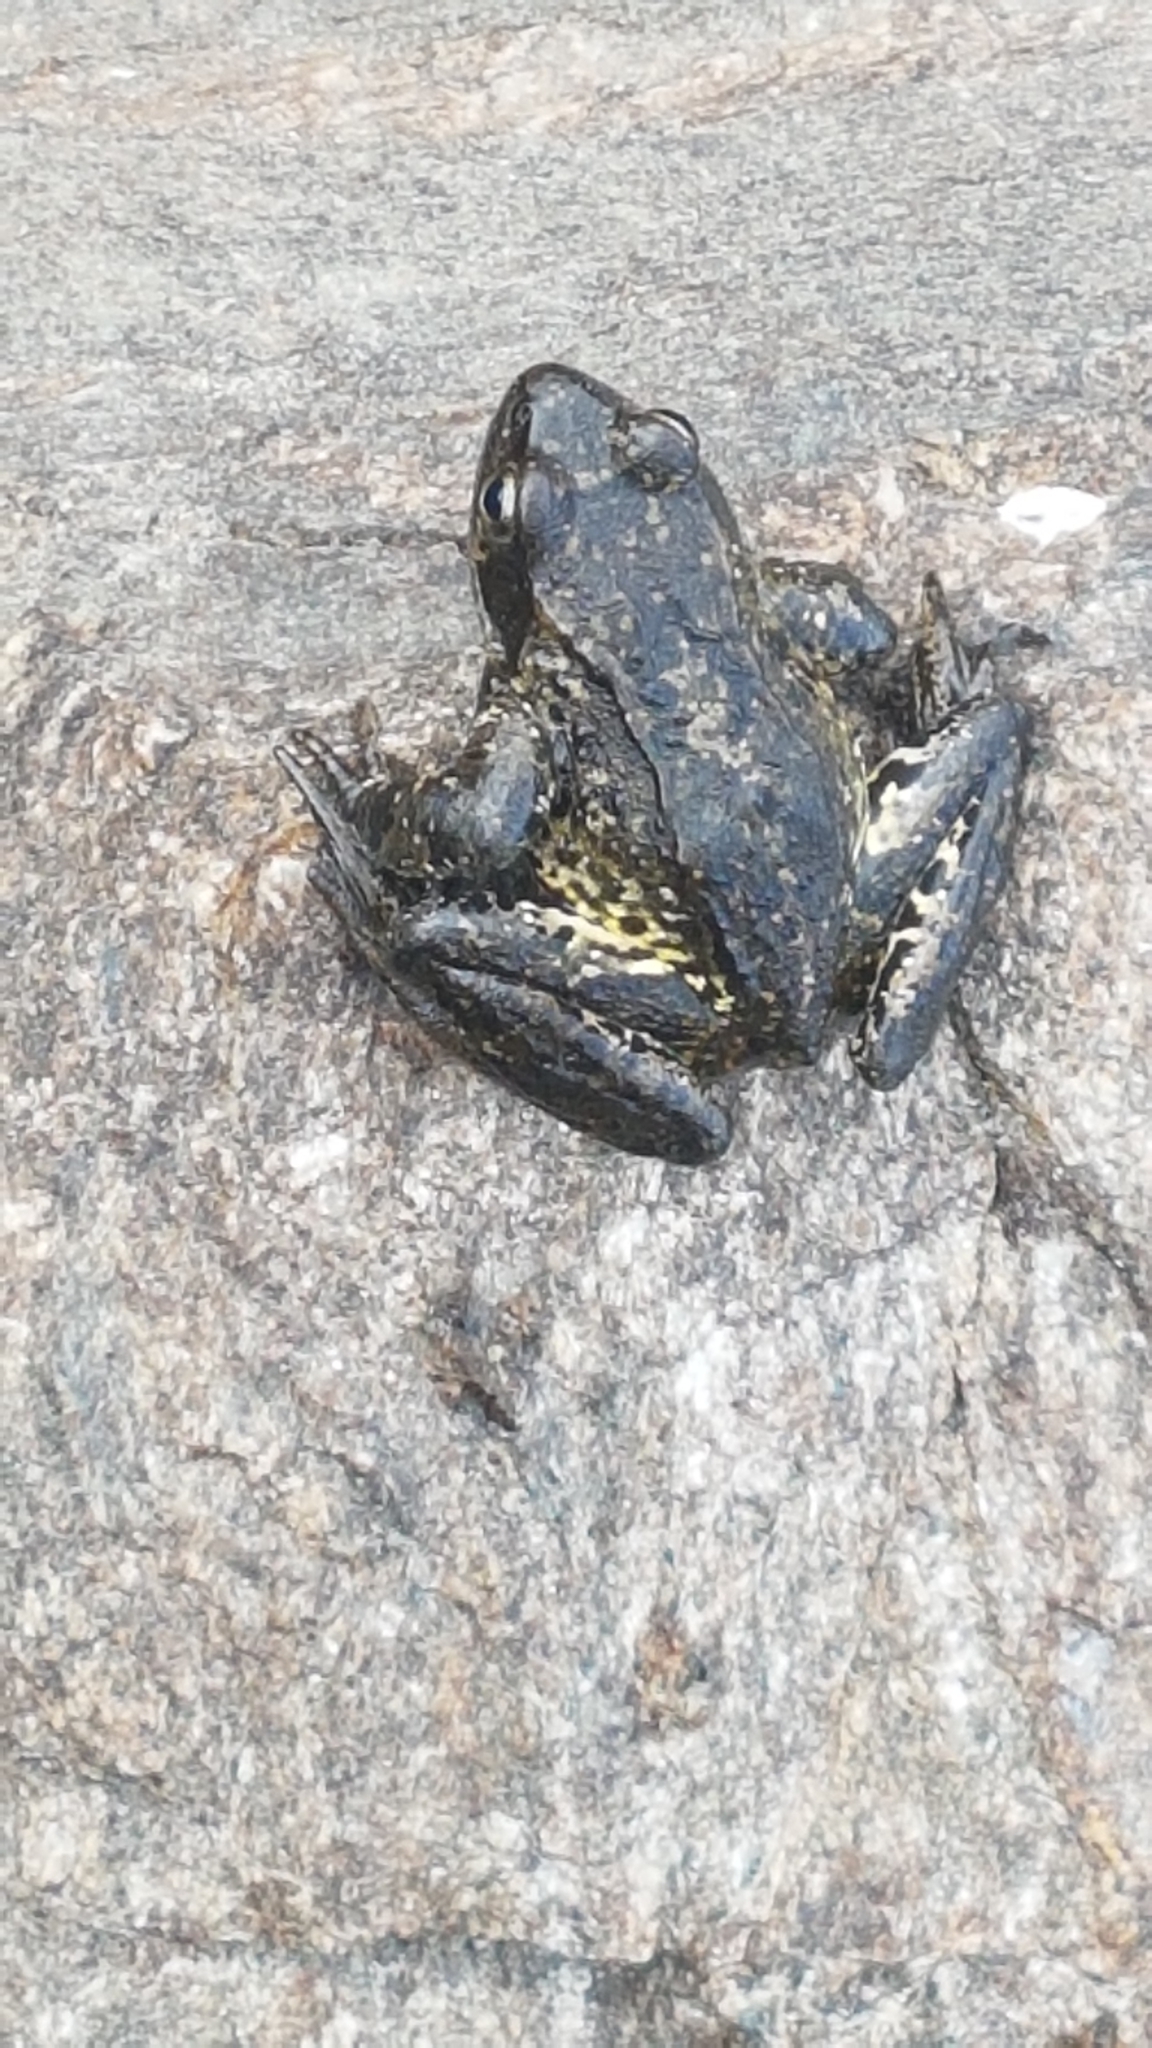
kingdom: Animalia
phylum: Chordata
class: Amphibia
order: Anura
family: Ranidae
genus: Rana
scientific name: Rana temporaria
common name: Common frog
